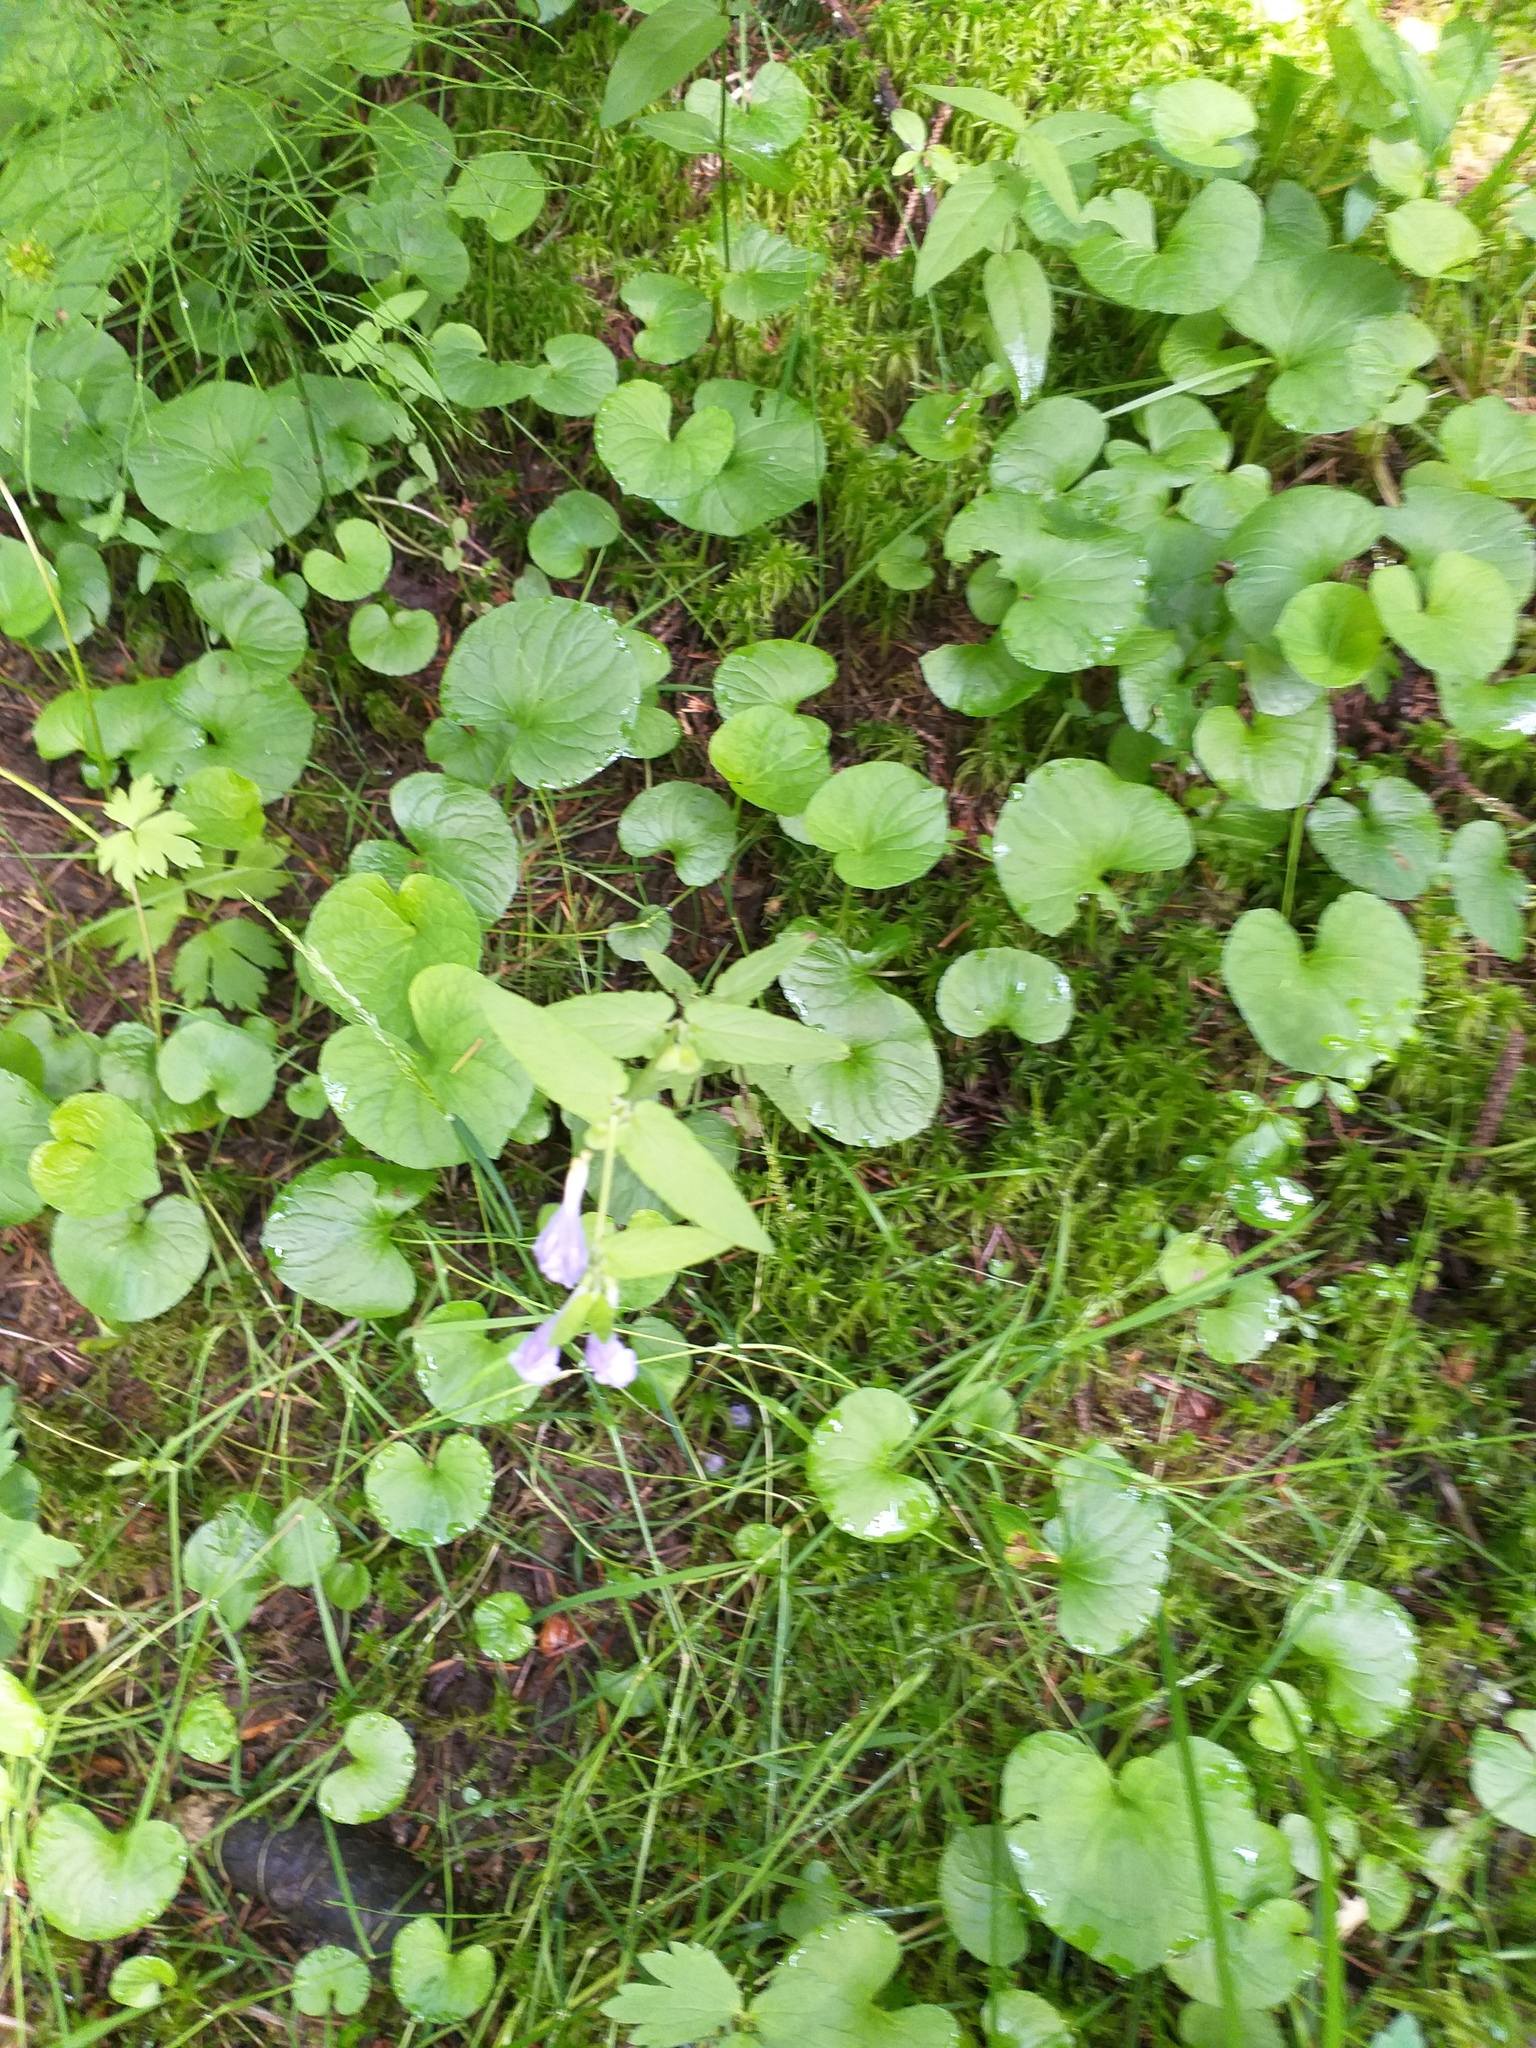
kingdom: Plantae
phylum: Tracheophyta
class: Magnoliopsida
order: Lamiales
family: Lamiaceae
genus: Scutellaria
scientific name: Scutellaria galericulata
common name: Skullcap
